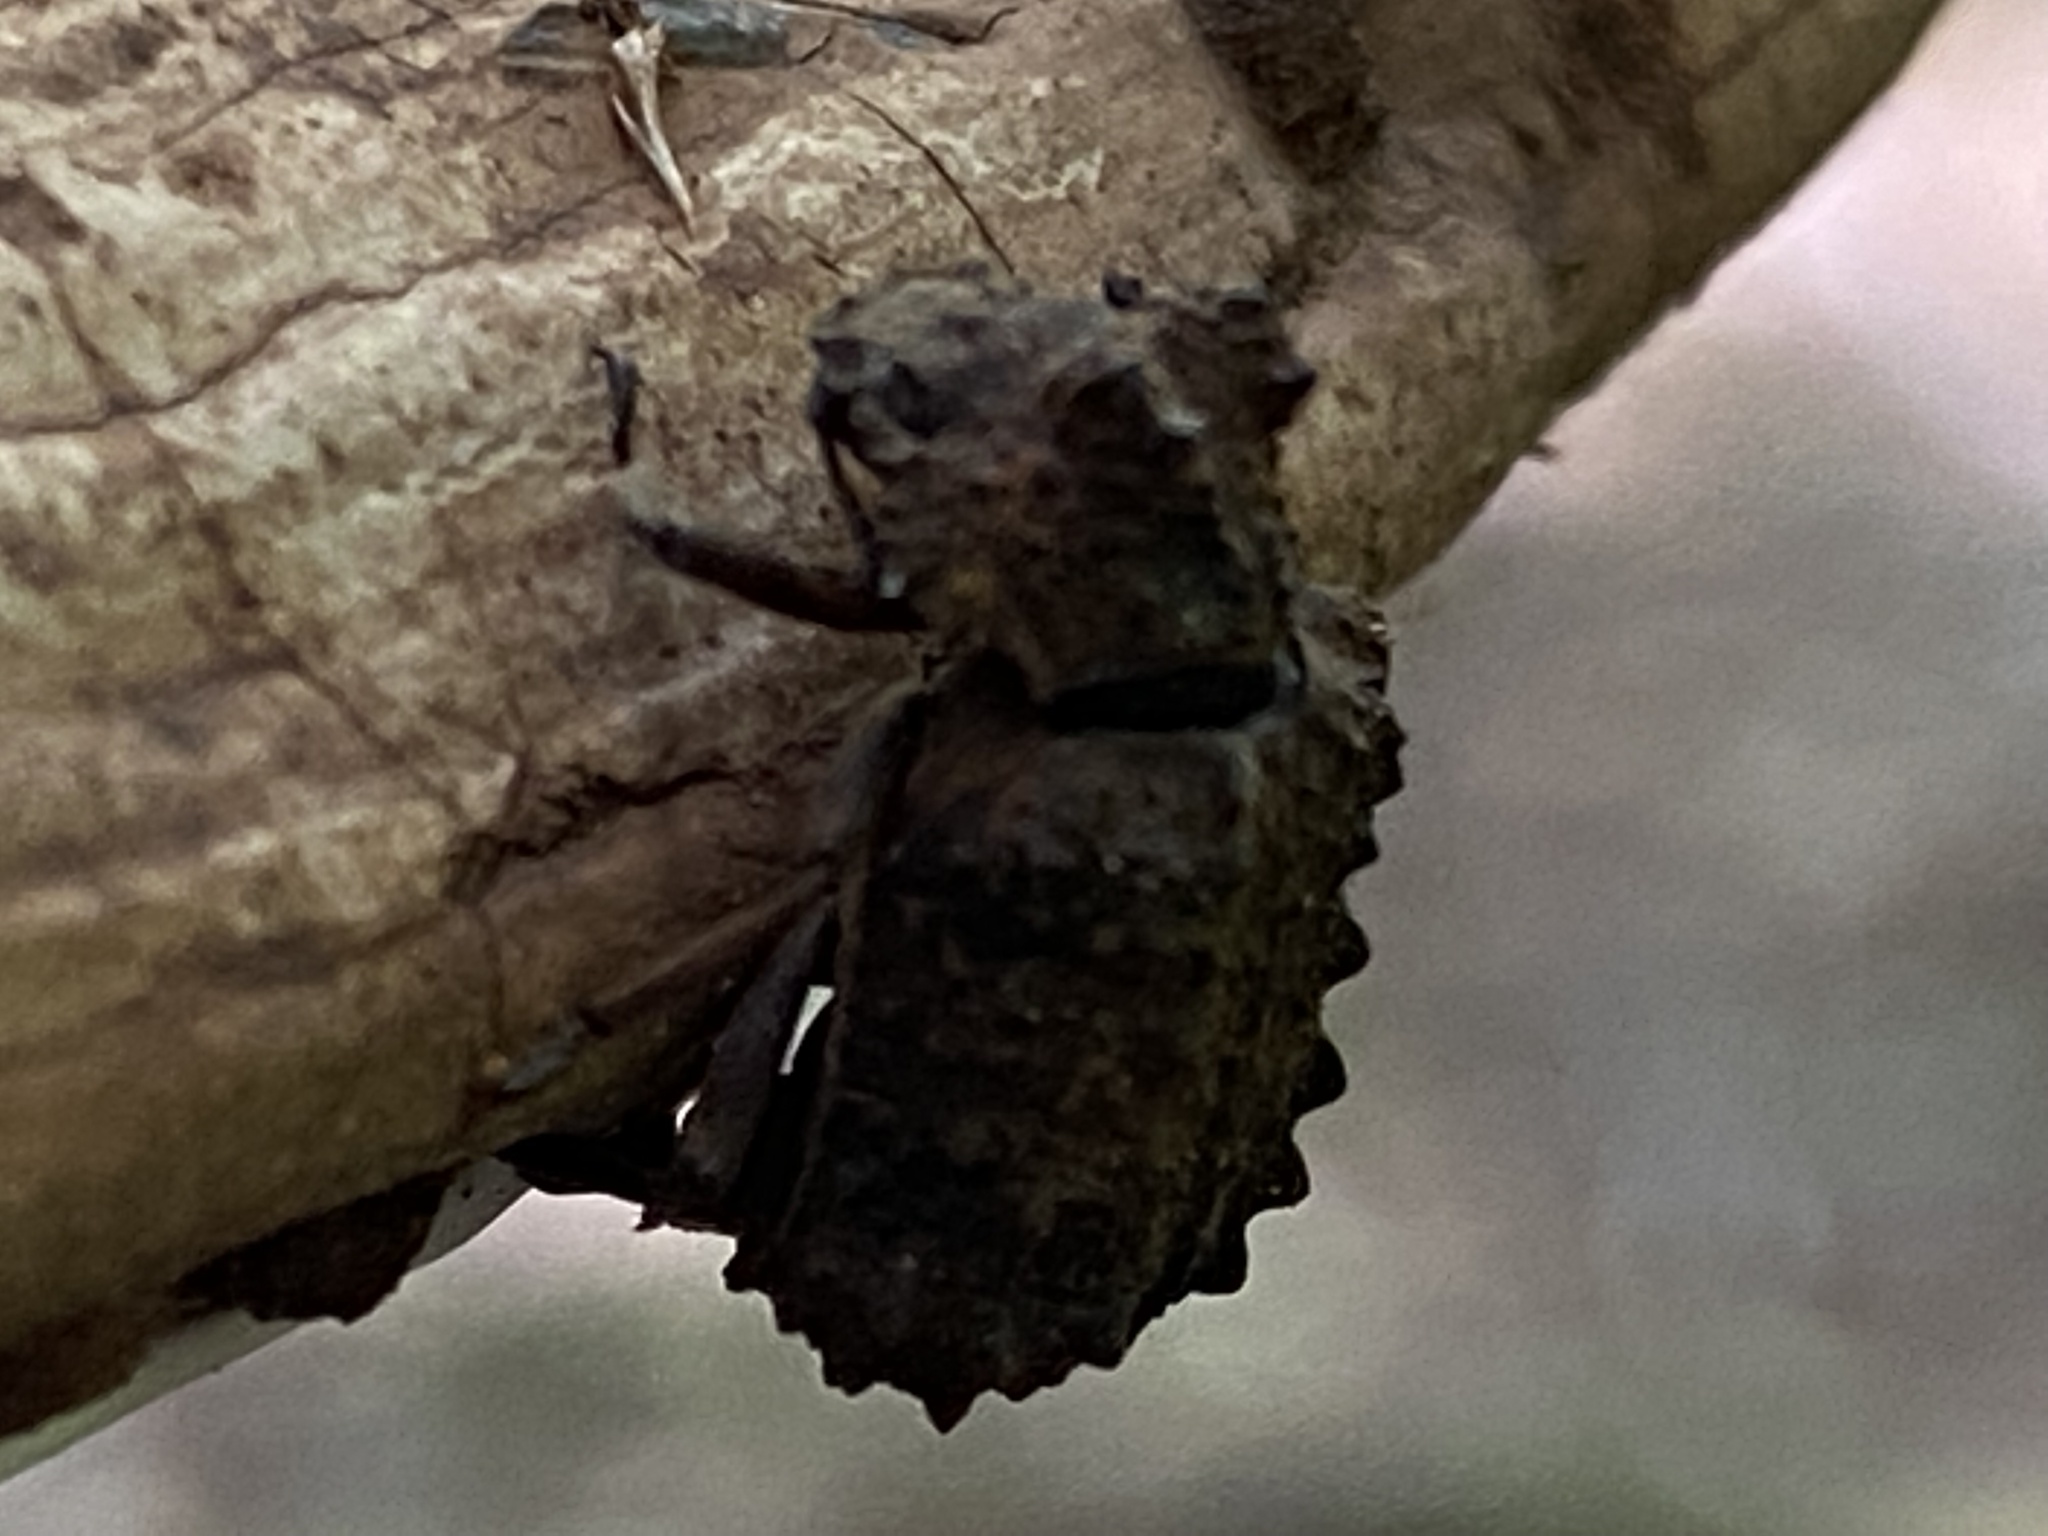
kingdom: Animalia
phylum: Arthropoda
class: Insecta
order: Coleoptera
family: Tenebrionidae
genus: Gnatocerus
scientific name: Gnatocerus cornutus
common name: Broad-horned flour beetle
